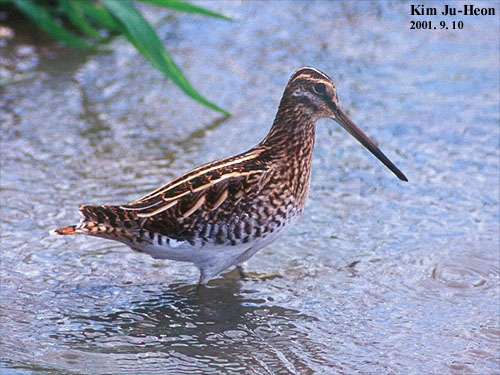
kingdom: Animalia
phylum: Chordata
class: Aves
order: Charadriiformes
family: Scolopacidae
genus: Gallinago
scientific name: Gallinago gallinago
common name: Common snipe
